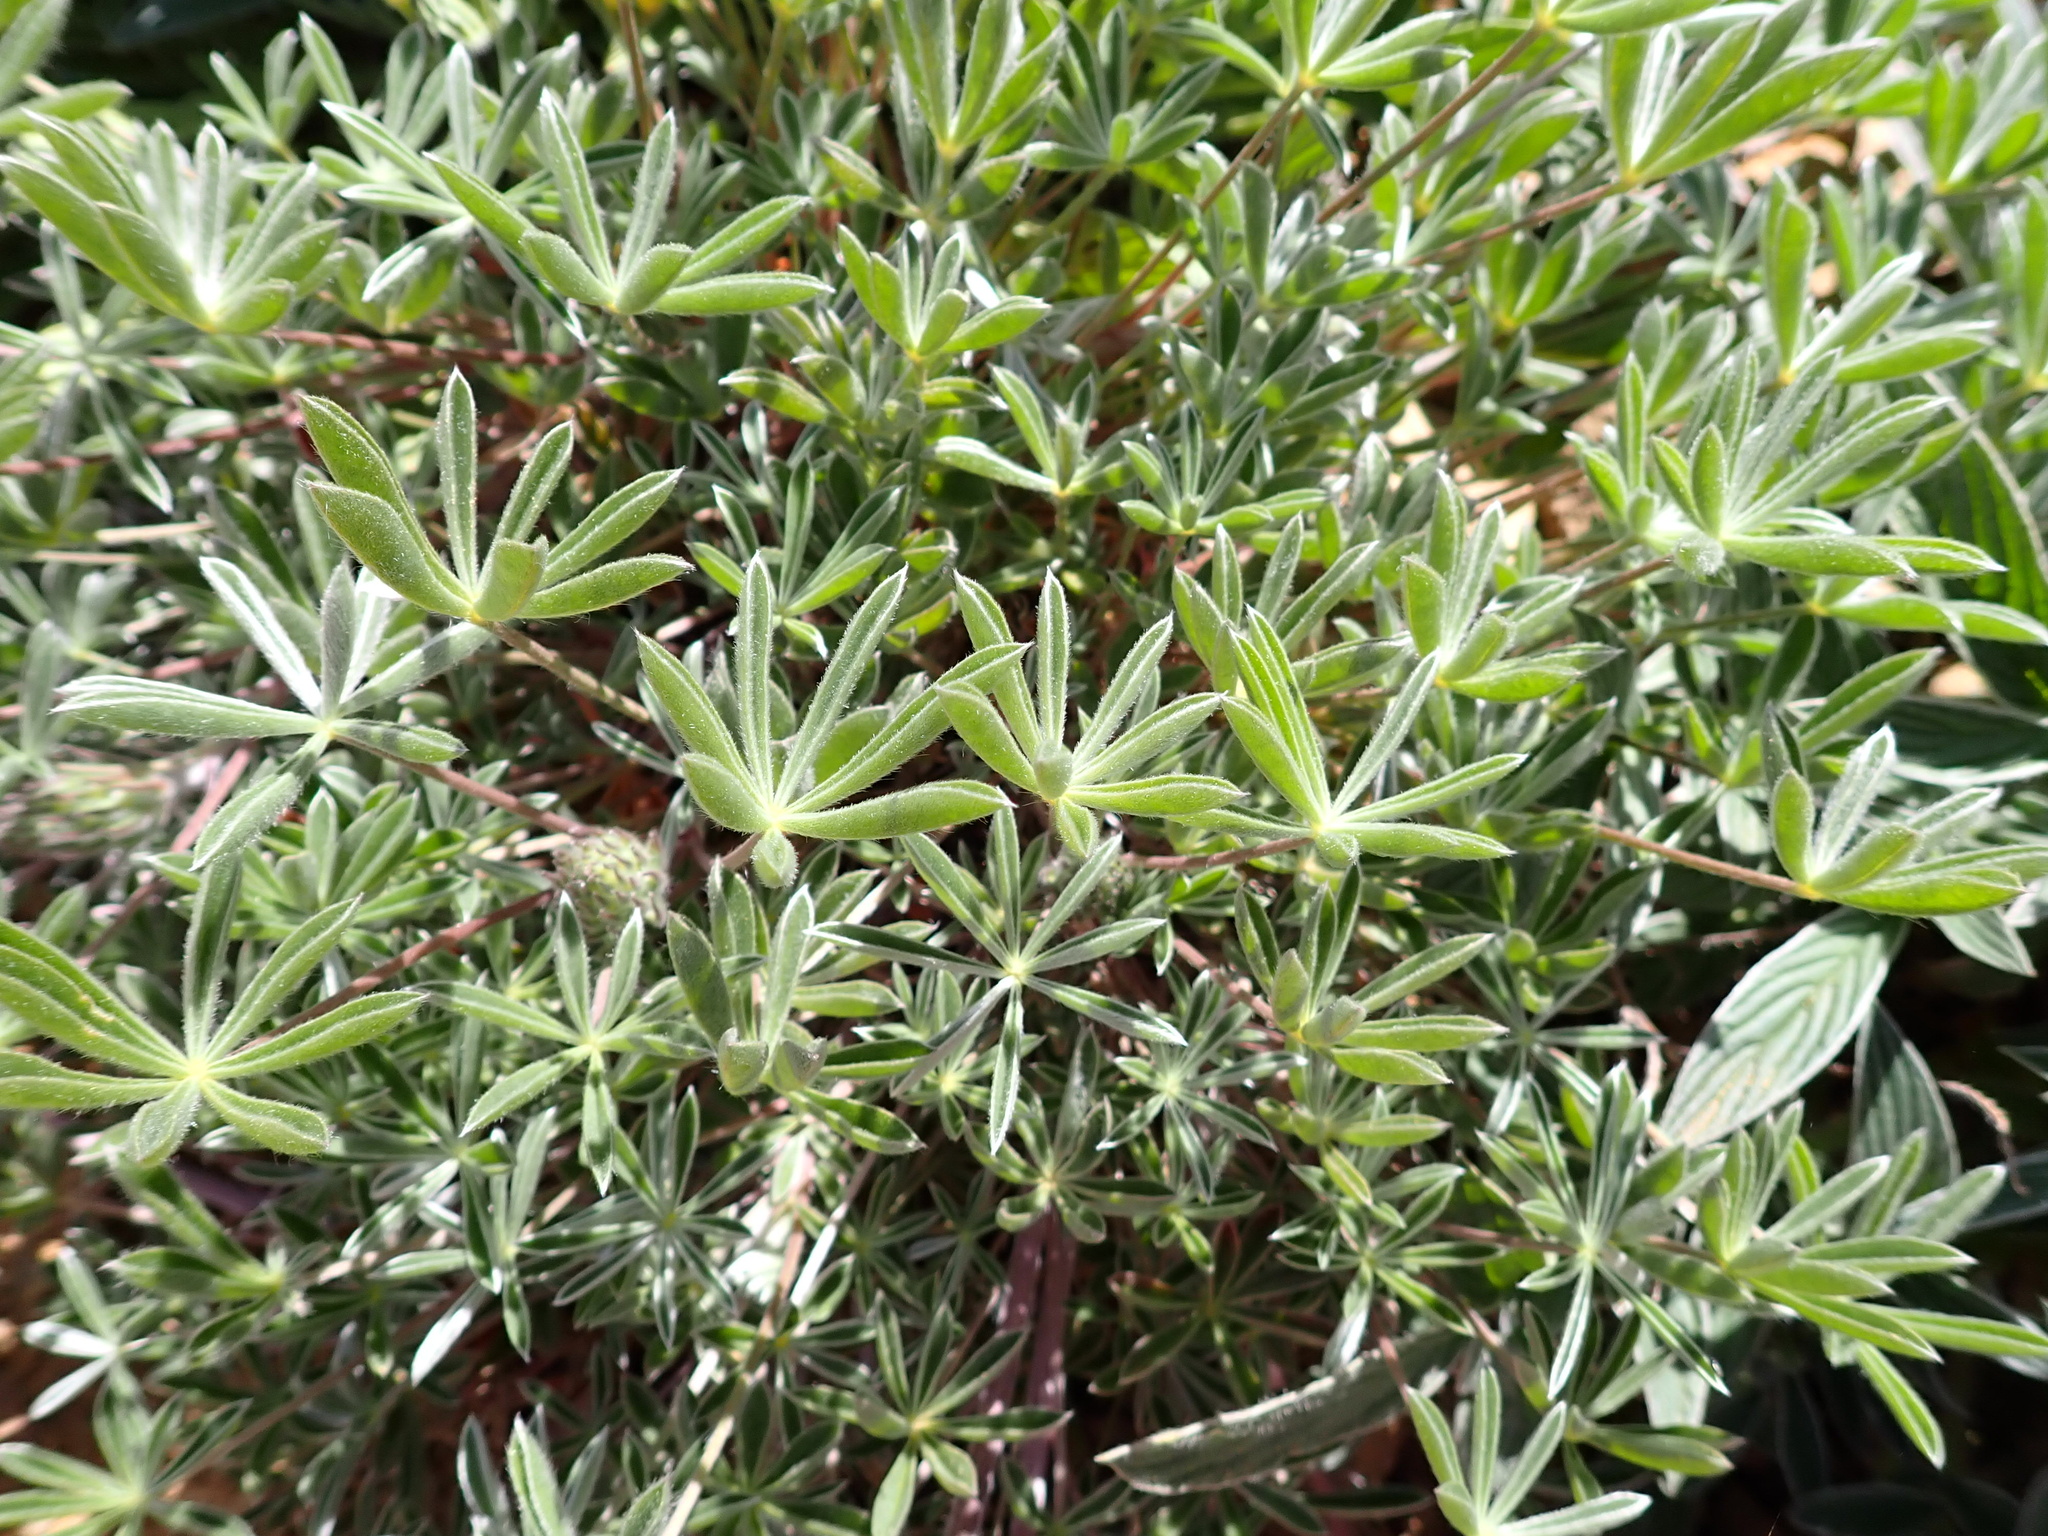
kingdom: Plantae
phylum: Tracheophyta
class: Magnoliopsida
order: Fabales
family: Fabaceae
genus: Lupinus
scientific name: Lupinus albifrons
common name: Foothill lupine
